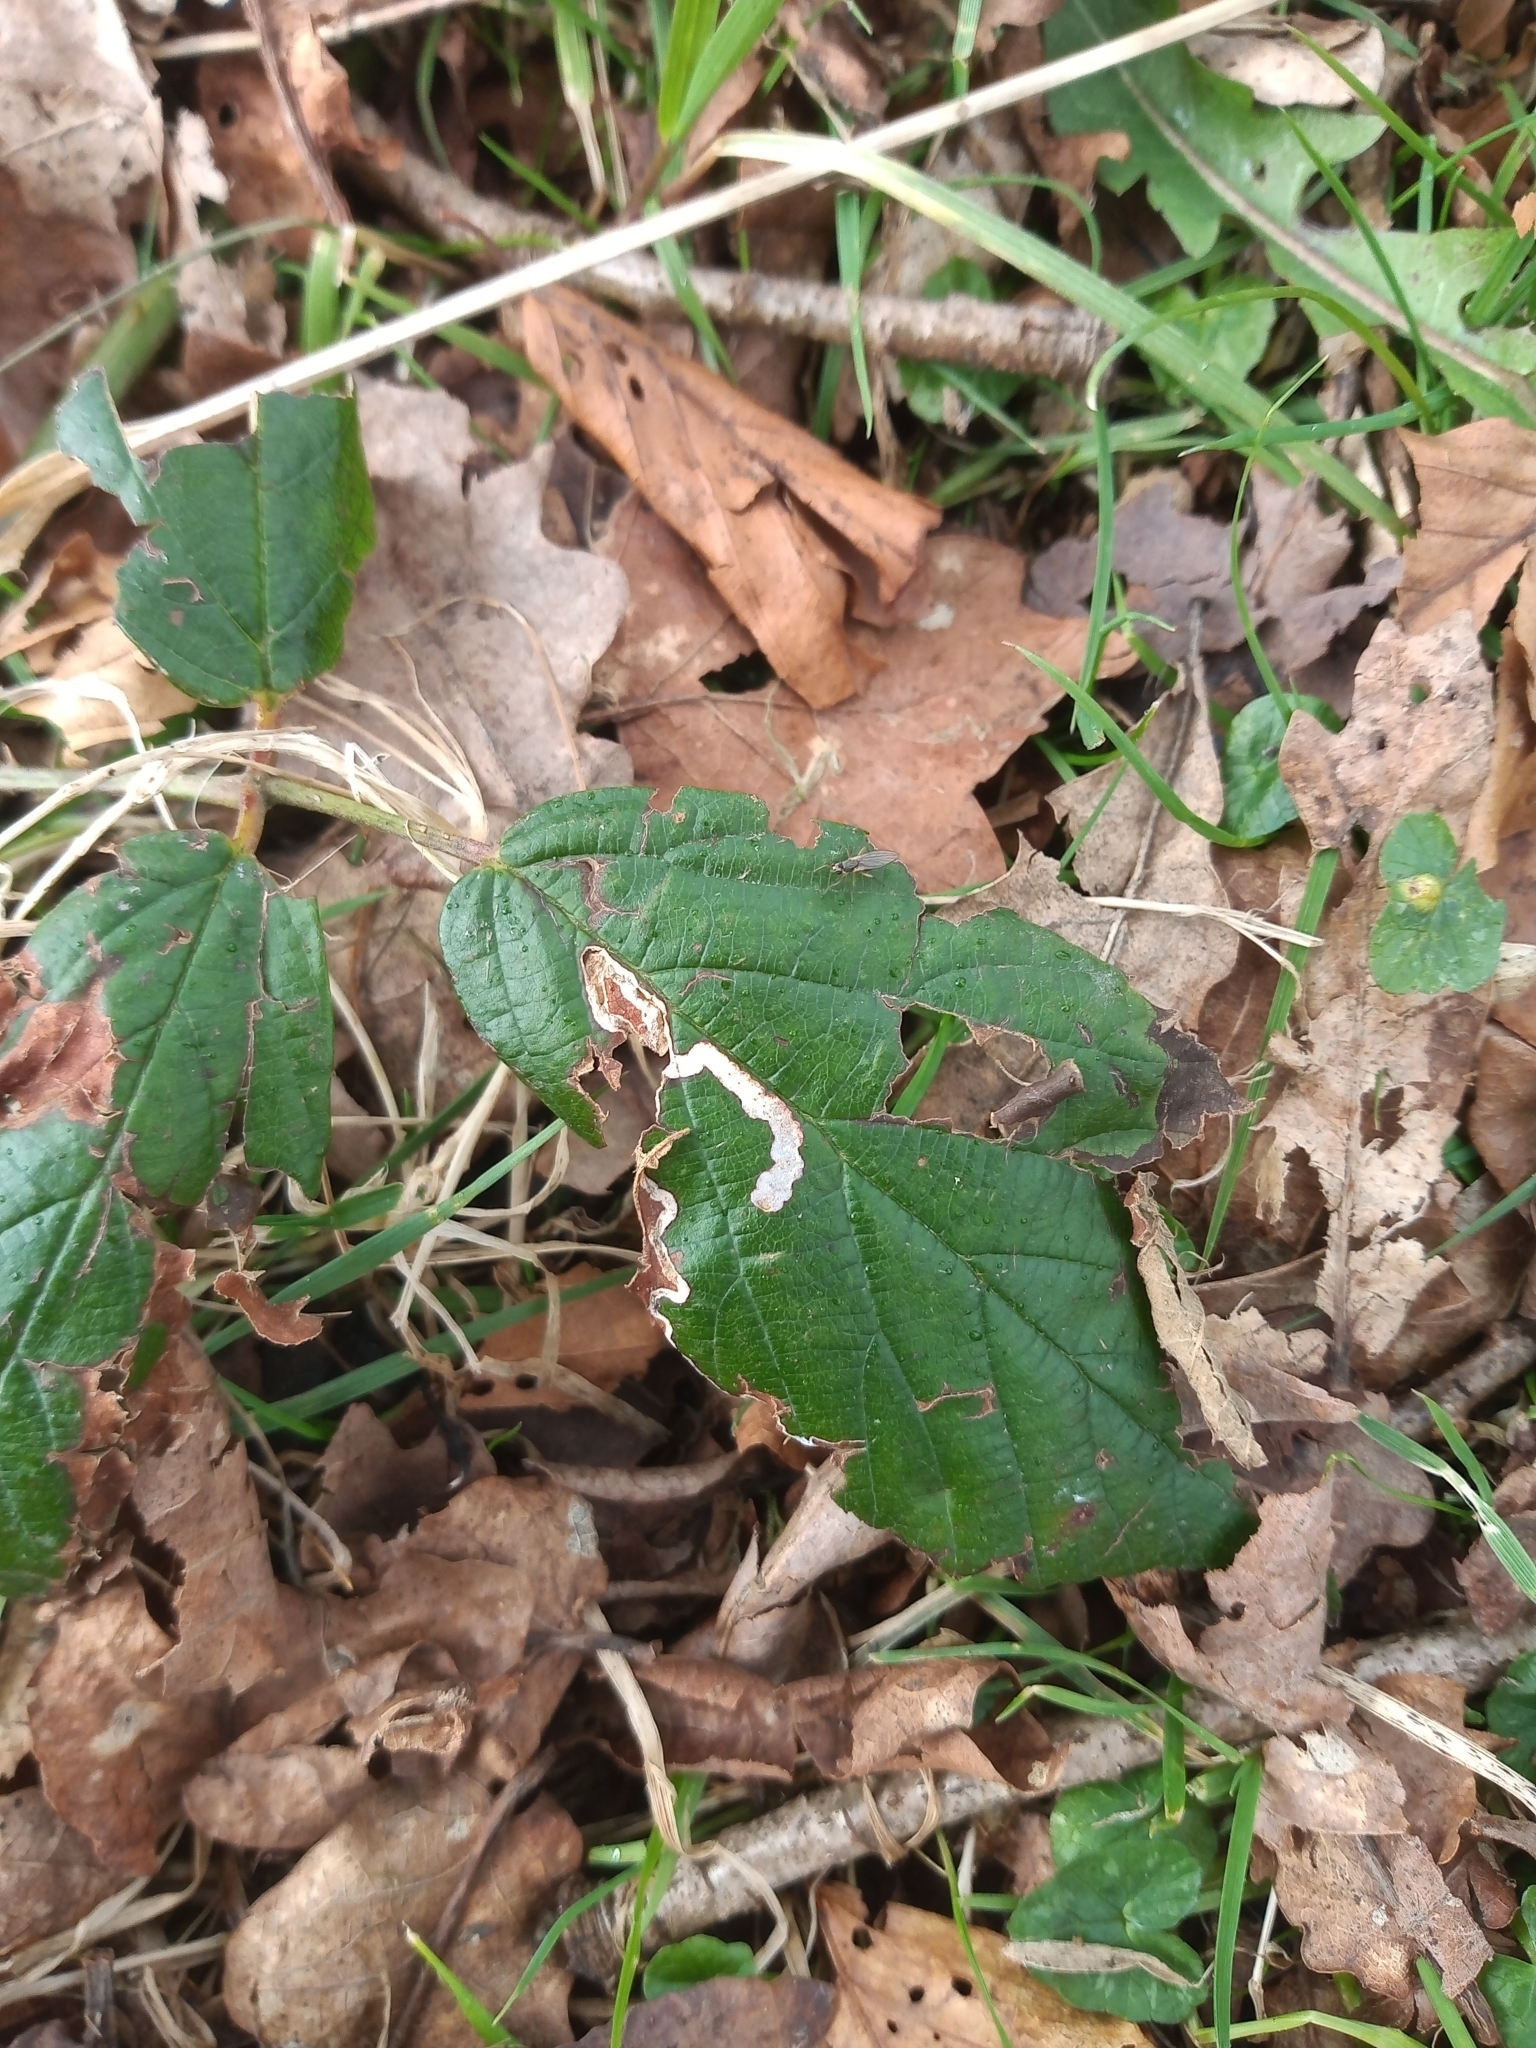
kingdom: Animalia
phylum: Arthropoda
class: Insecta
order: Lepidoptera
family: Nepticulidae
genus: Stigmella
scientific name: Stigmella aurella
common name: Golden pigmy
